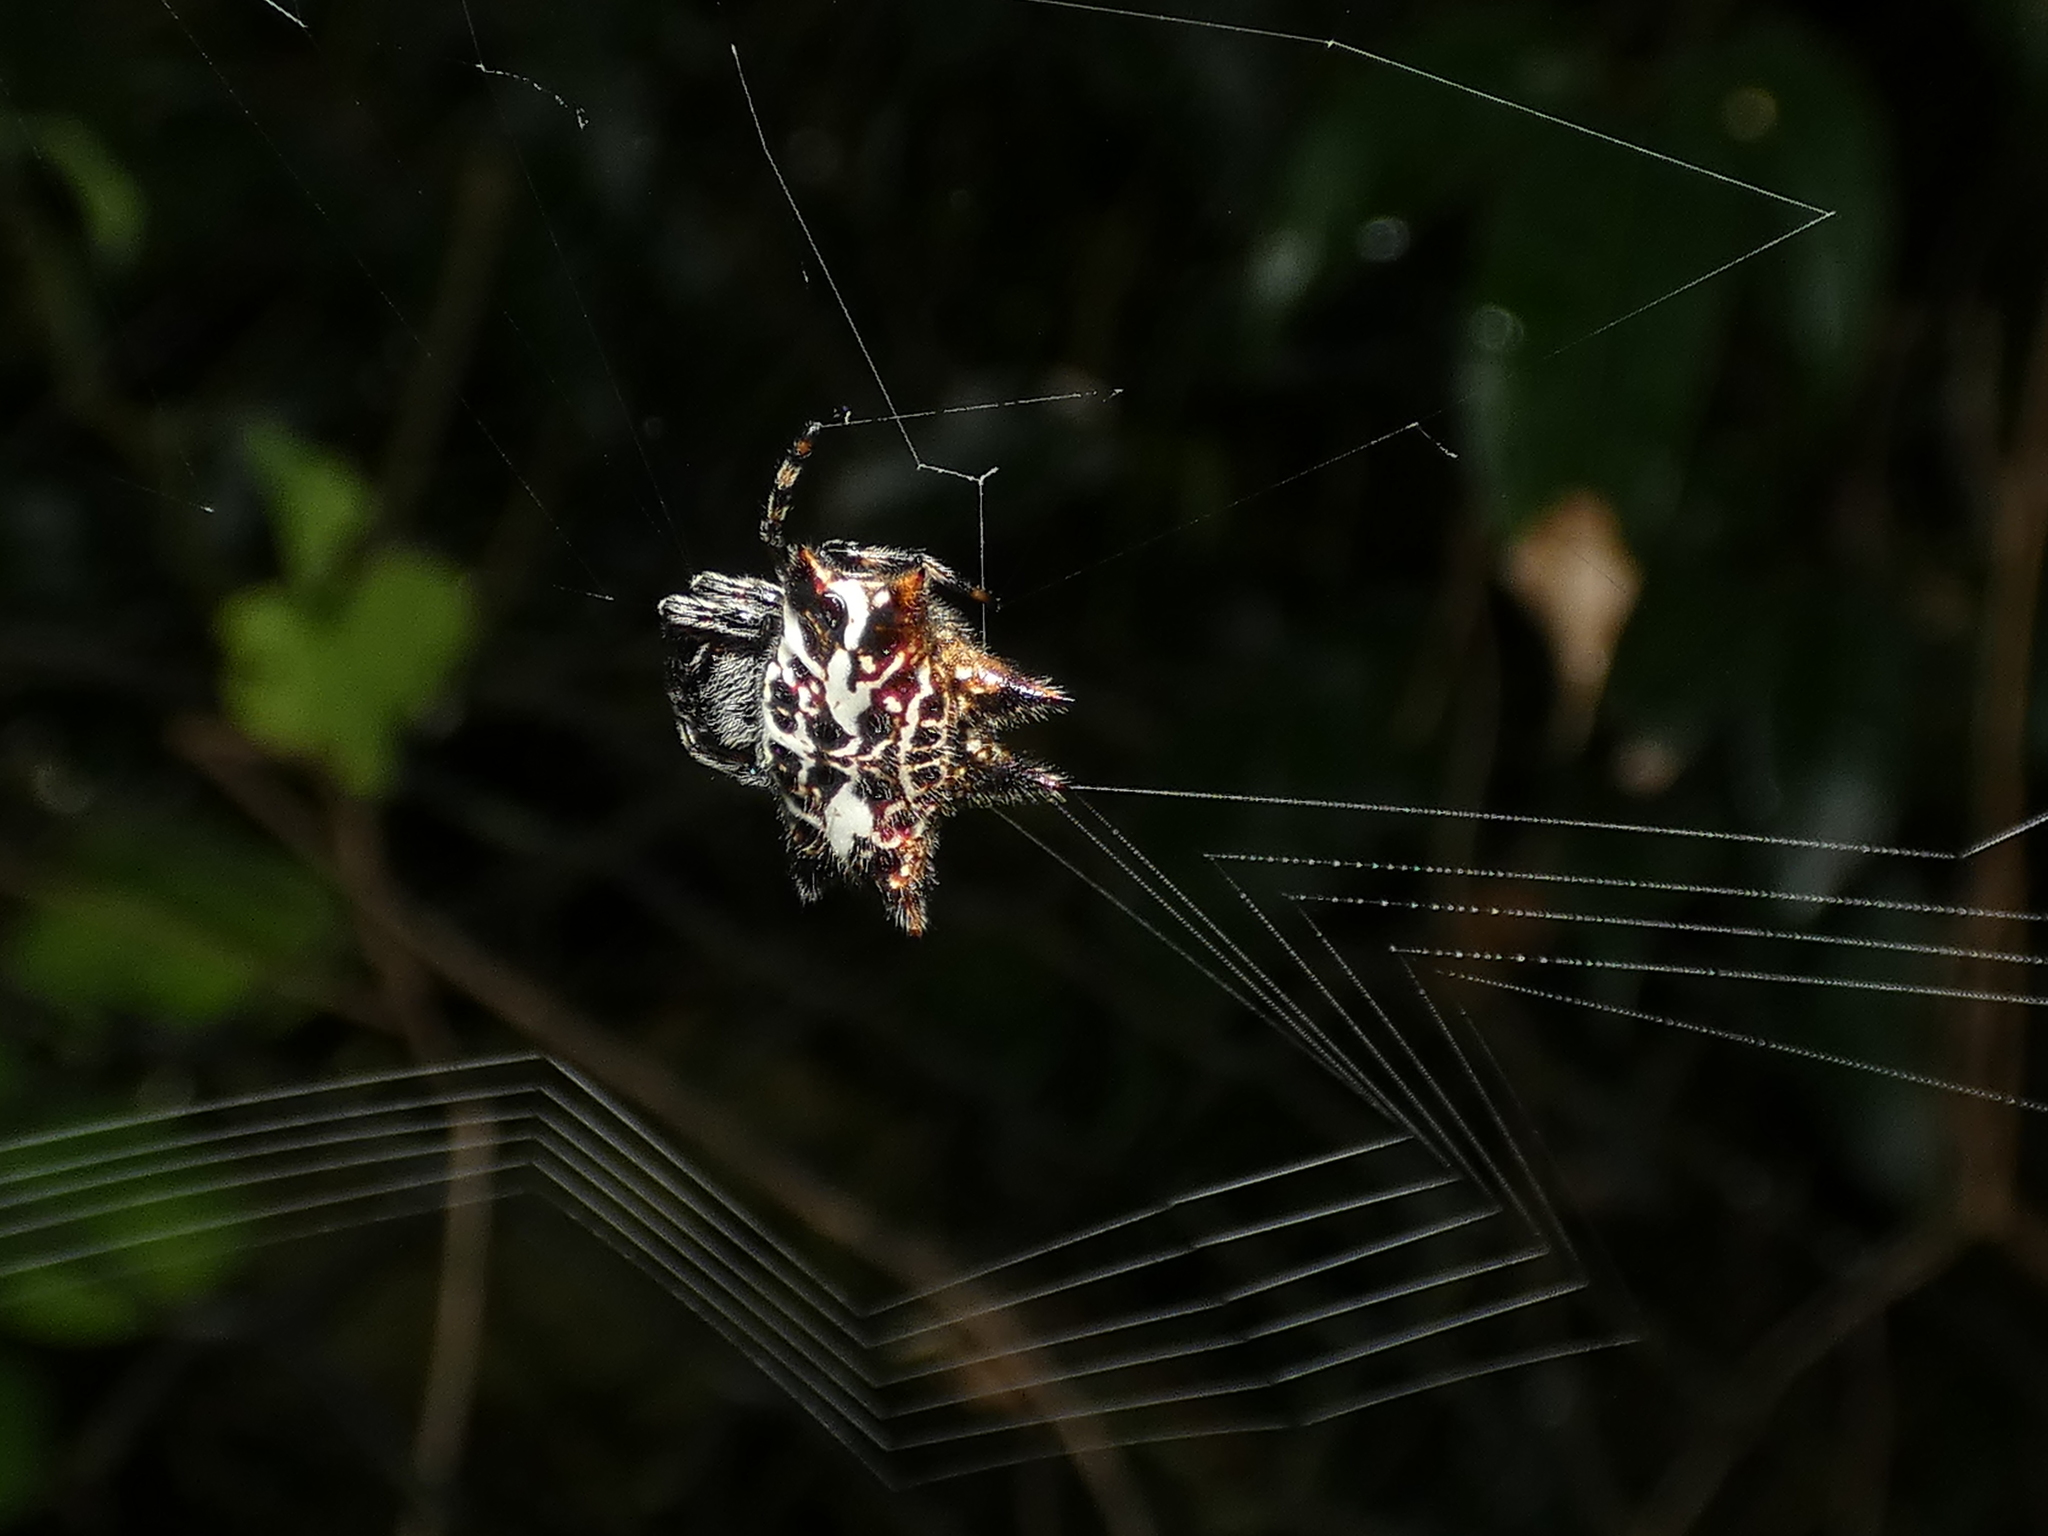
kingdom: Animalia
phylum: Arthropoda
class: Arachnida
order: Araneae
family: Araneidae
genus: Gasteracantha
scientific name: Gasteracantha cancriformis
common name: Orb weavers
